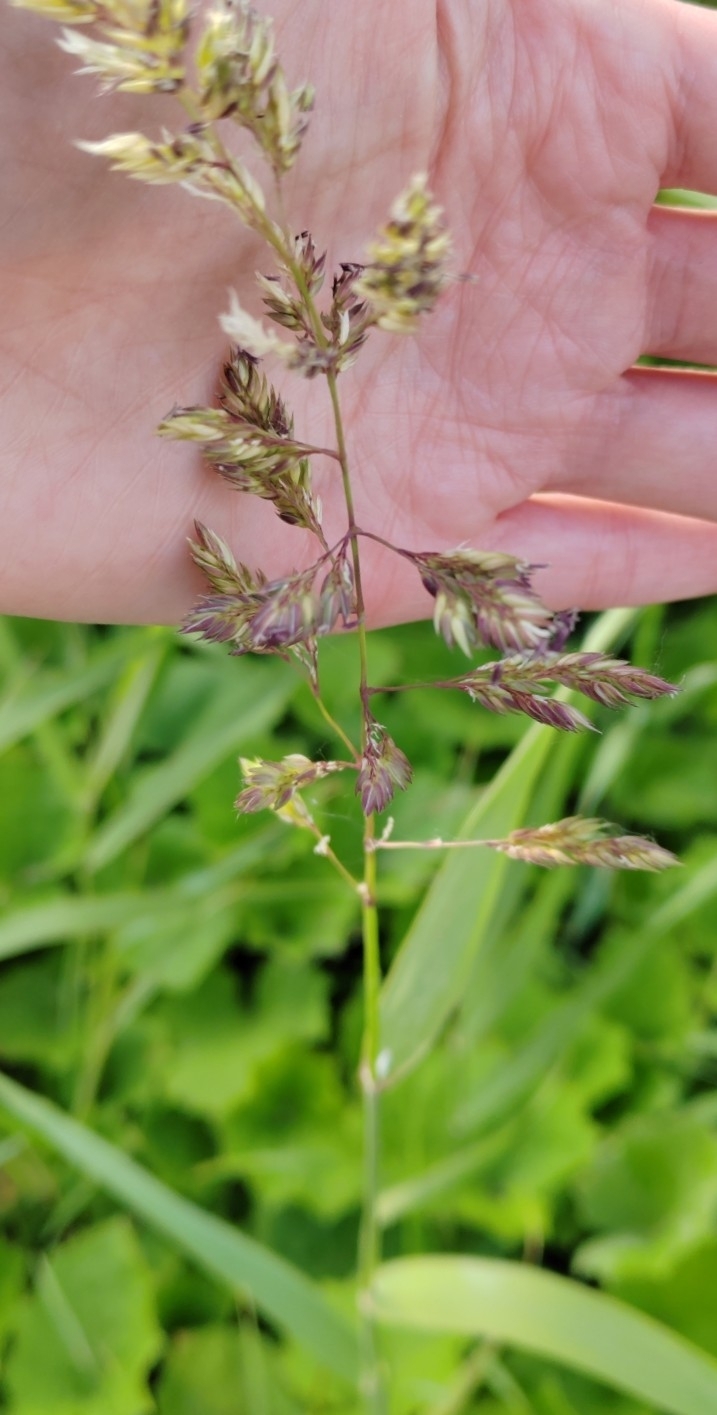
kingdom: Plantae
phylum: Tracheophyta
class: Liliopsida
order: Poales
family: Poaceae
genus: Phalaris
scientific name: Phalaris arundinacea
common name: Reed canary-grass
